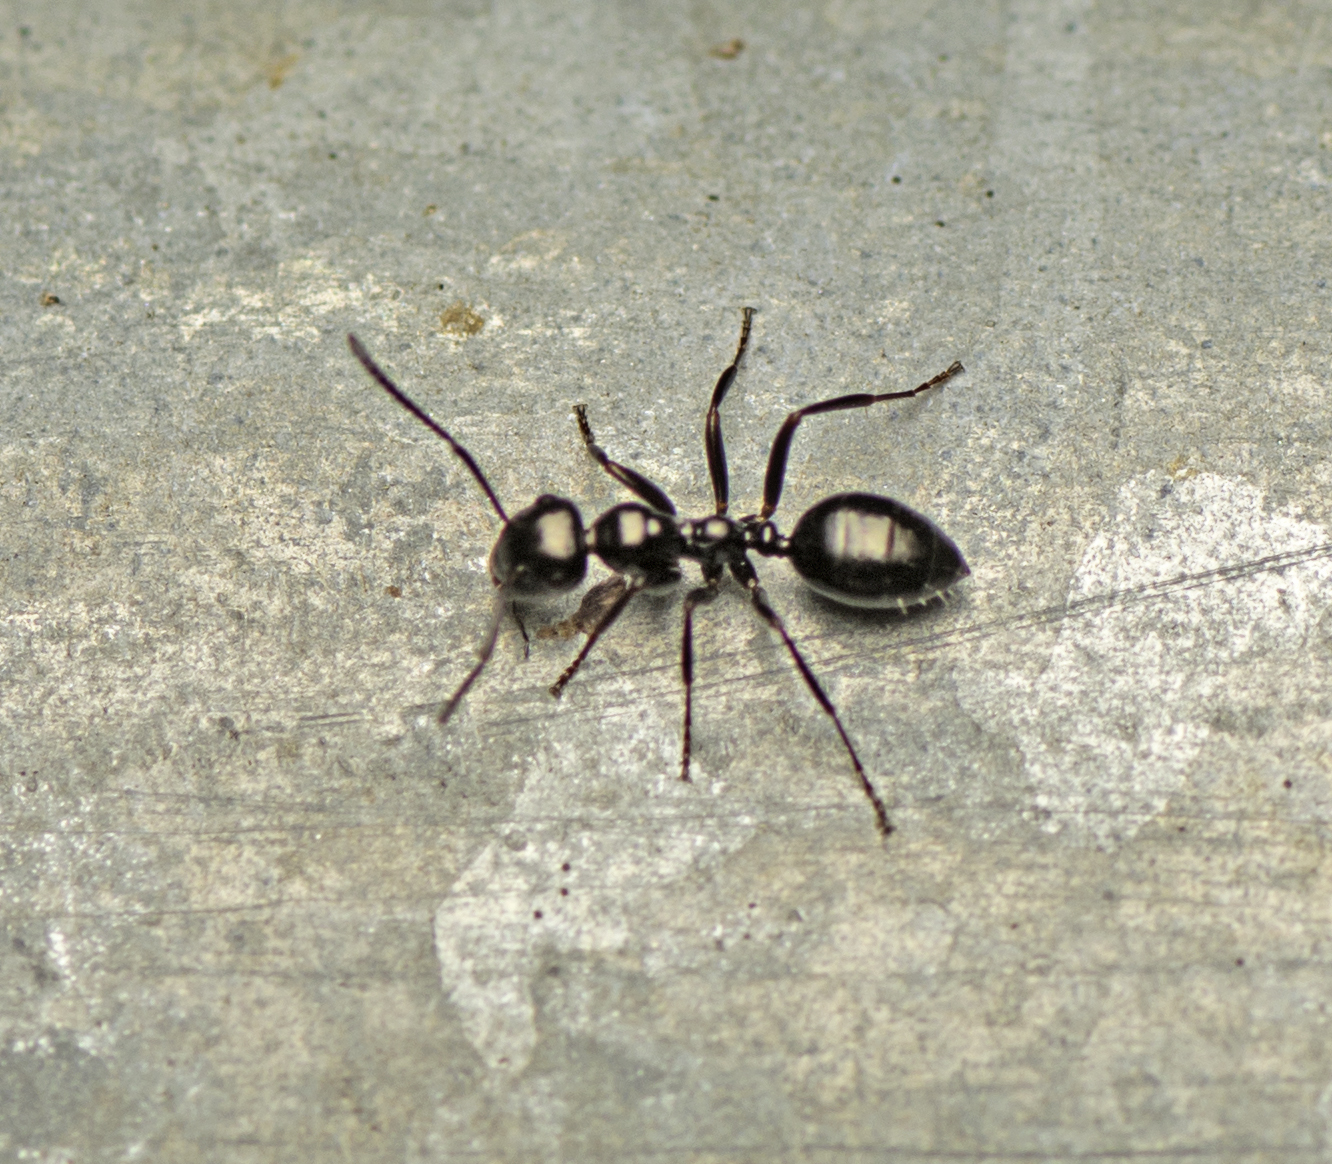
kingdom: Animalia
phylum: Arthropoda
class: Insecta
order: Hymenoptera
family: Formicidae
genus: Colobopsis
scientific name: Colobopsis gasseri
